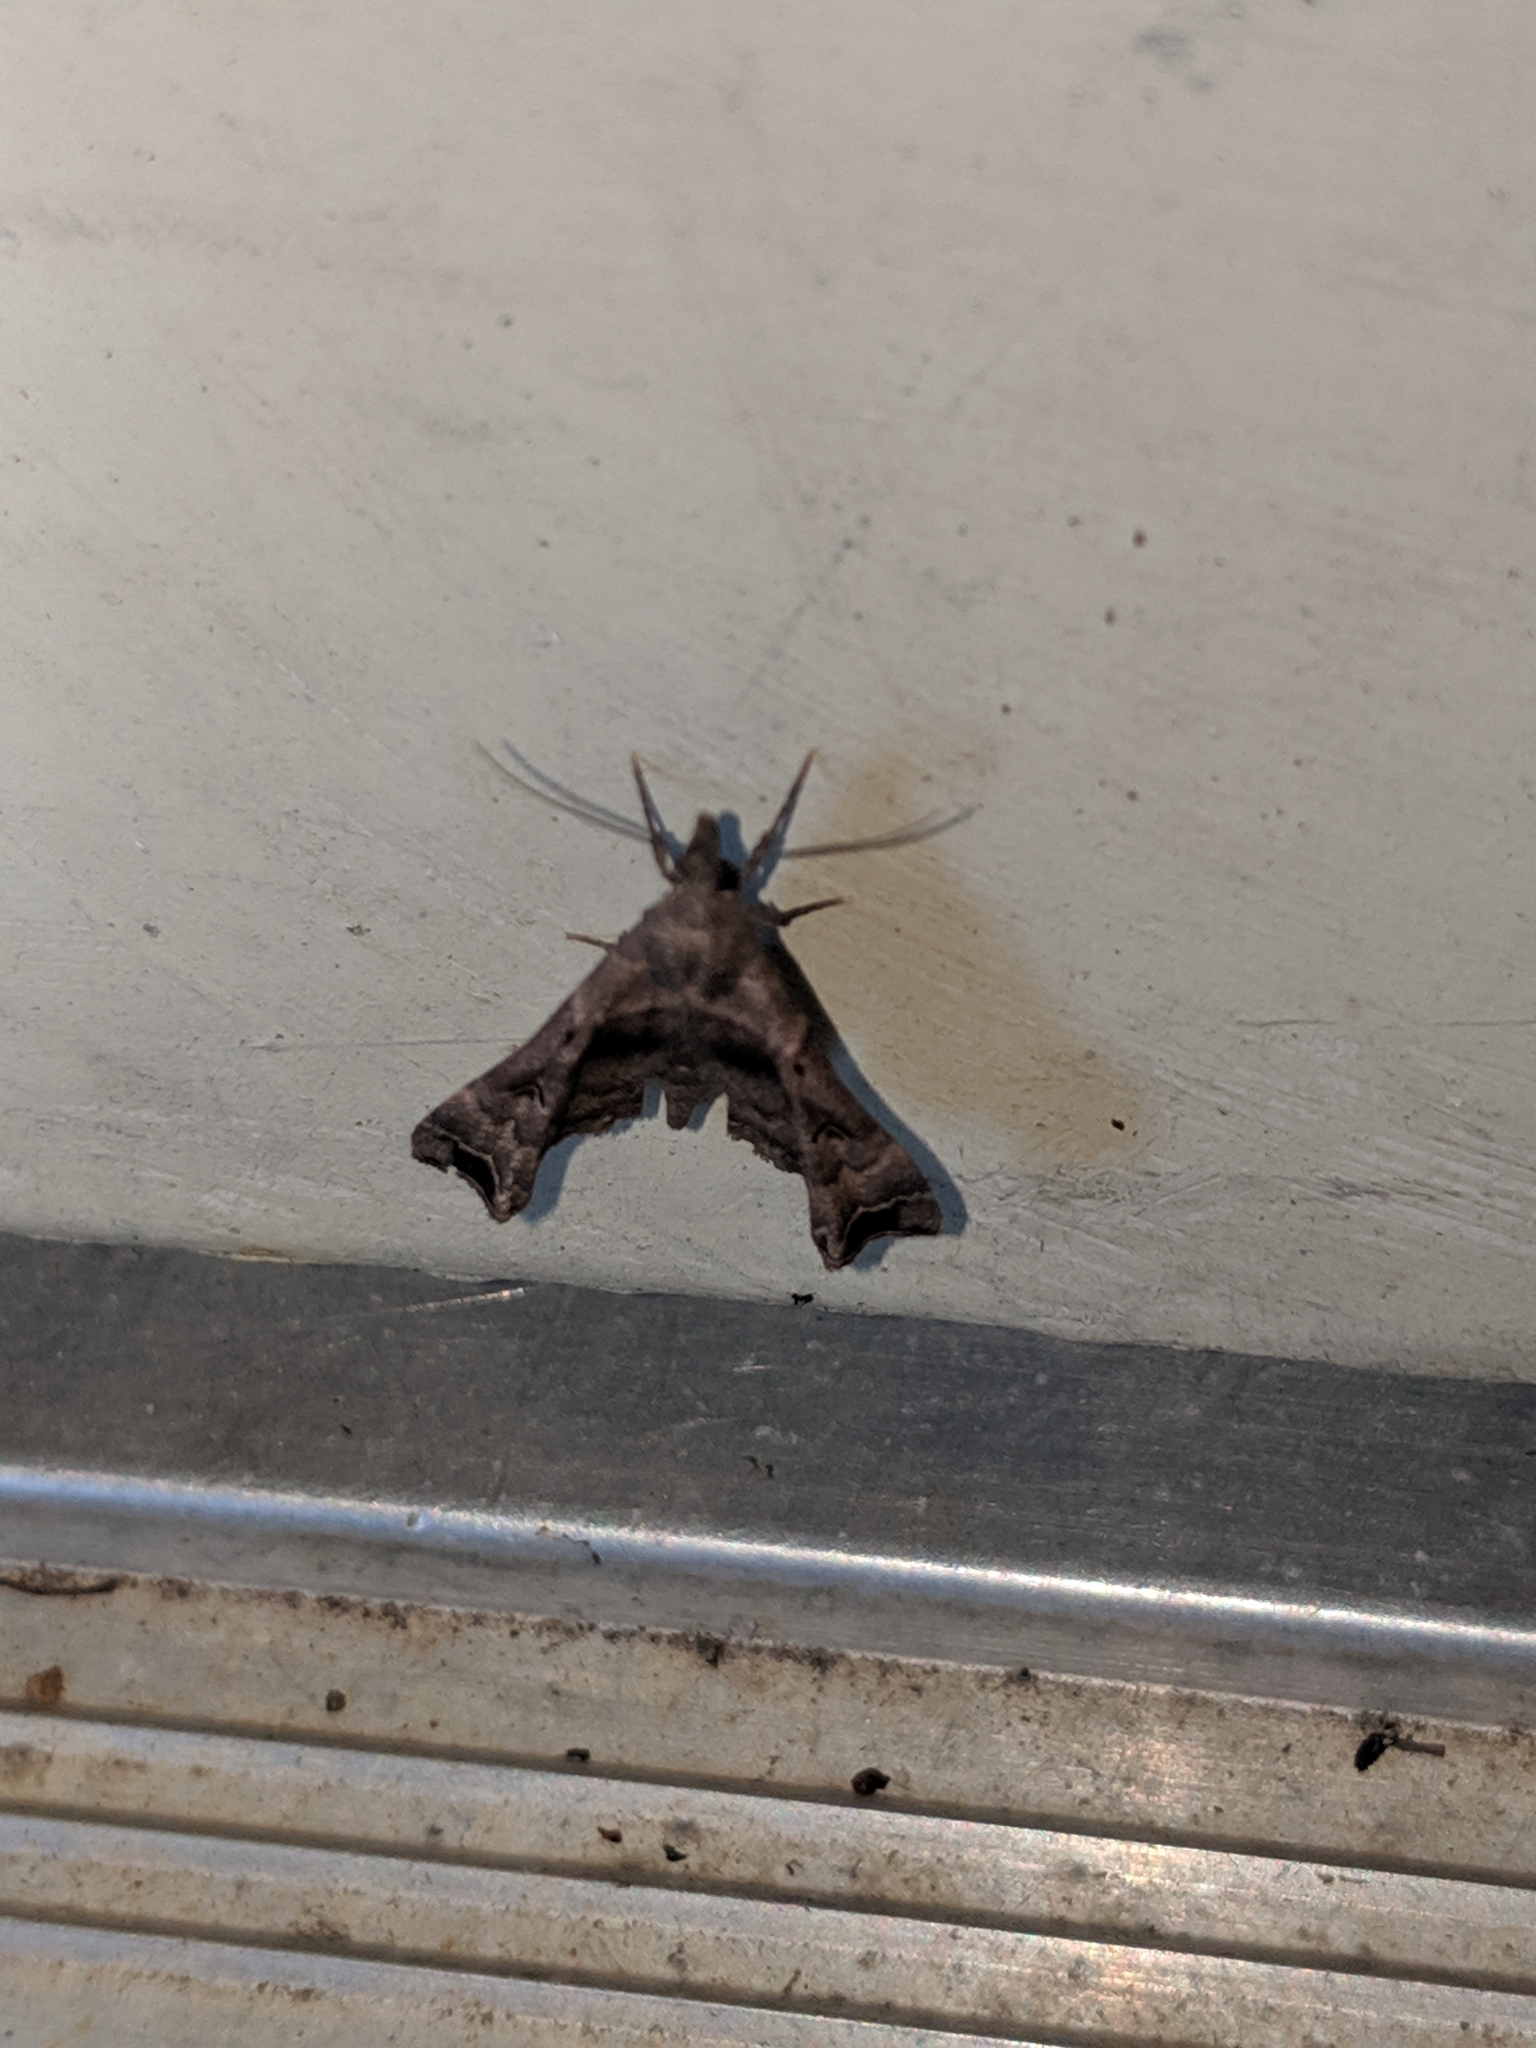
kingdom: Animalia
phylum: Arthropoda
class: Insecta
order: Lepidoptera
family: Erebidae
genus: Palthis
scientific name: Palthis asopialis
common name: Faint-spotted palthis moth
